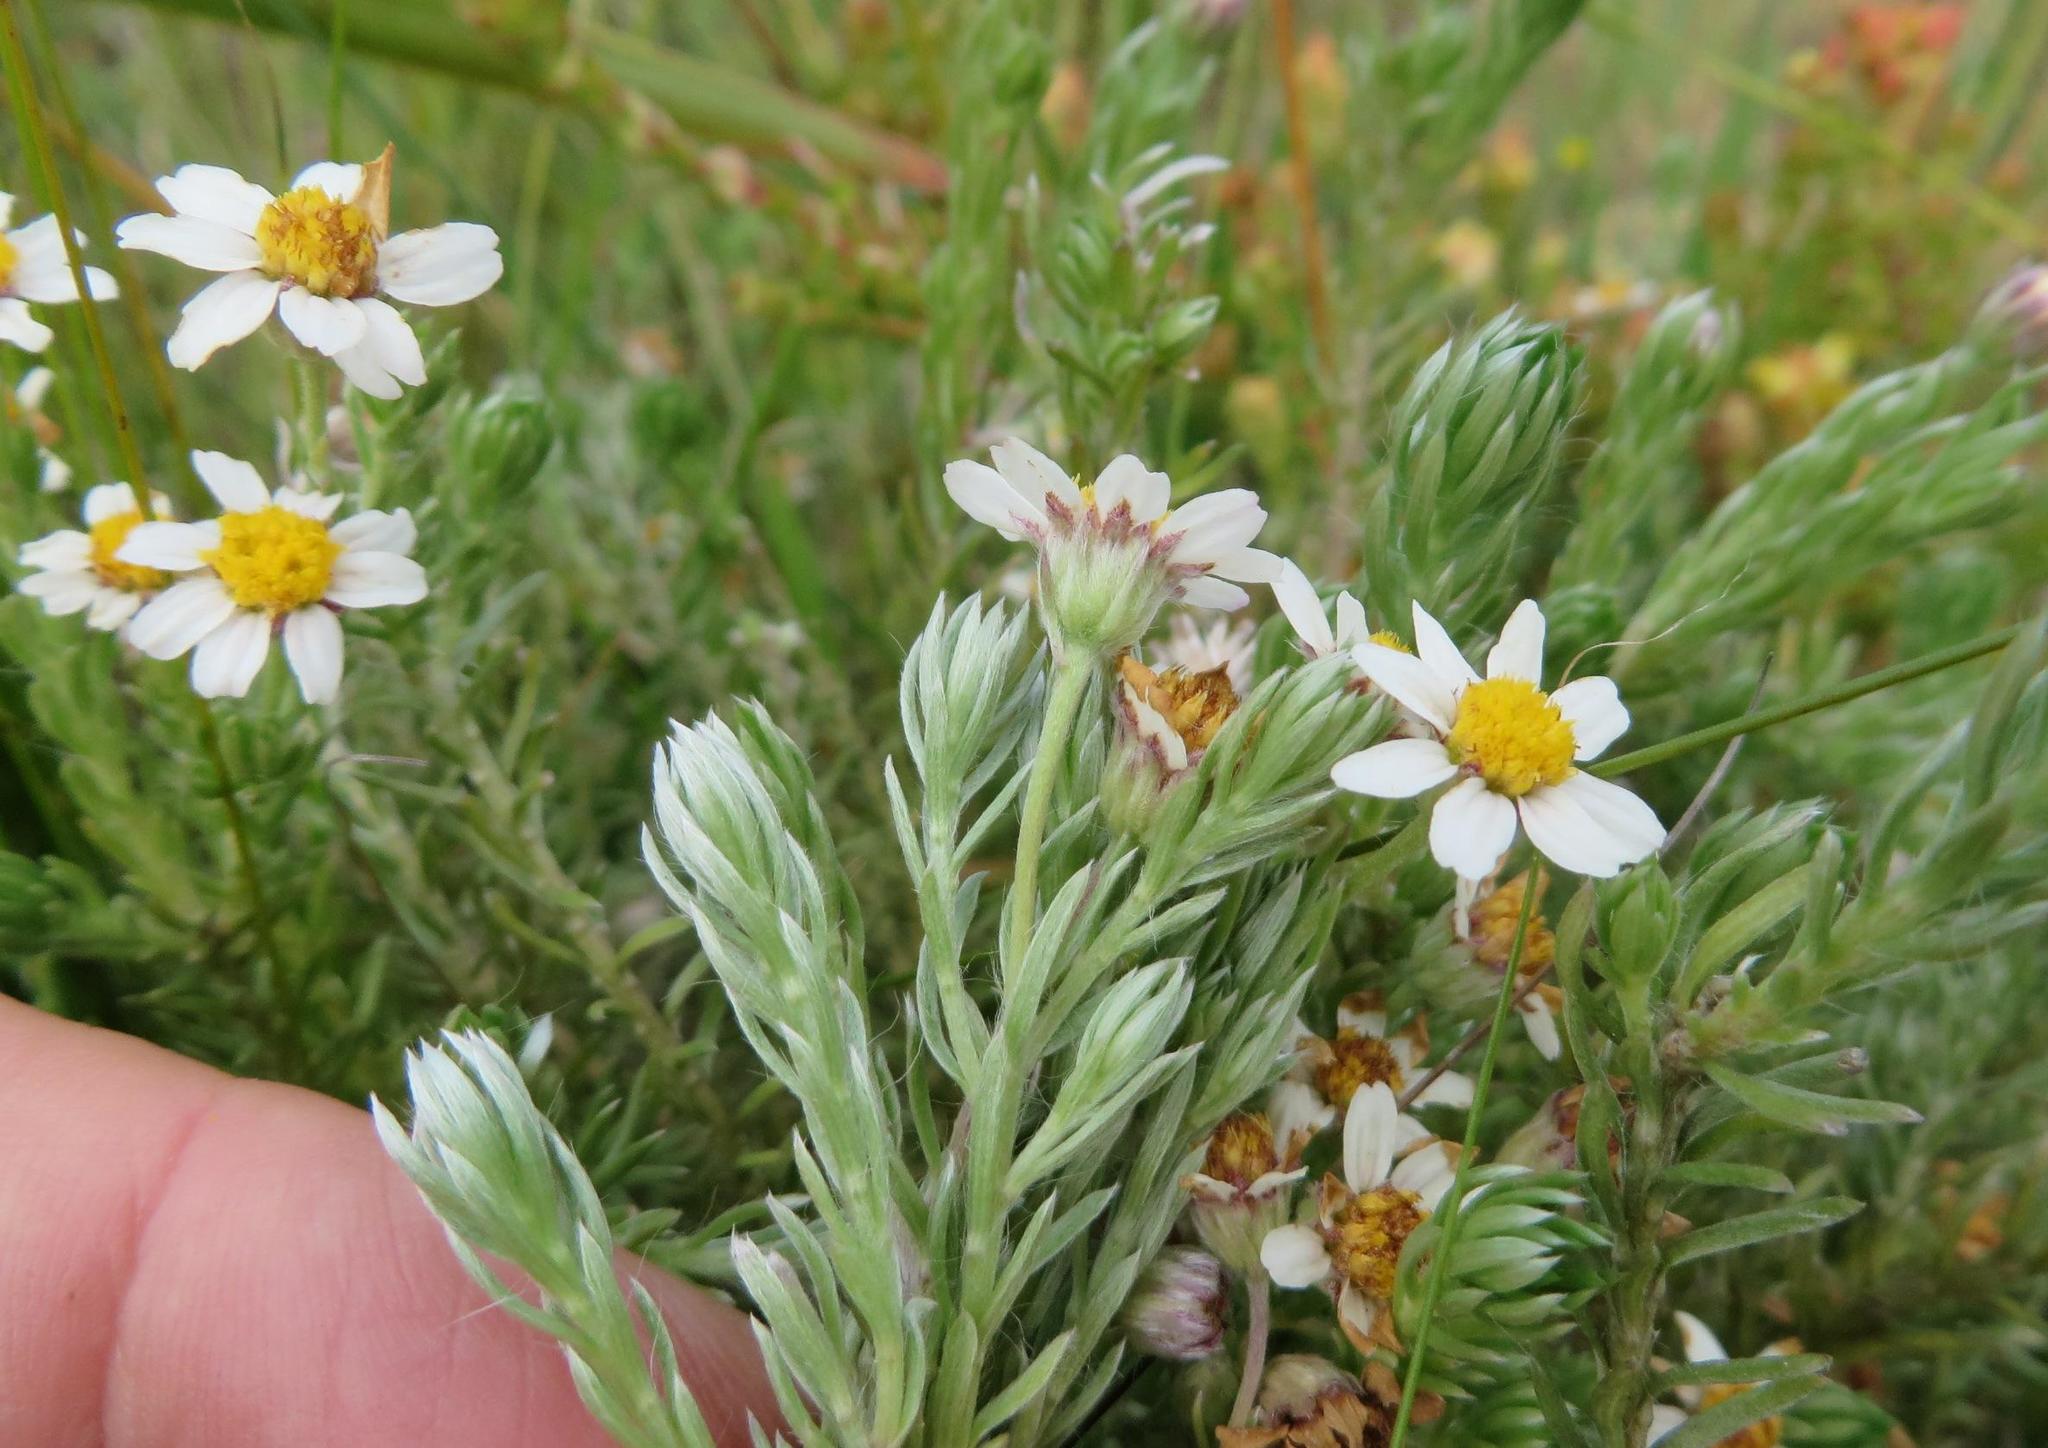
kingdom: Plantae
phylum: Tracheophyta
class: Magnoliopsida
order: Asterales
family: Asteraceae
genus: Thaminophyllum
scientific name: Thaminophyllum multiflorum
